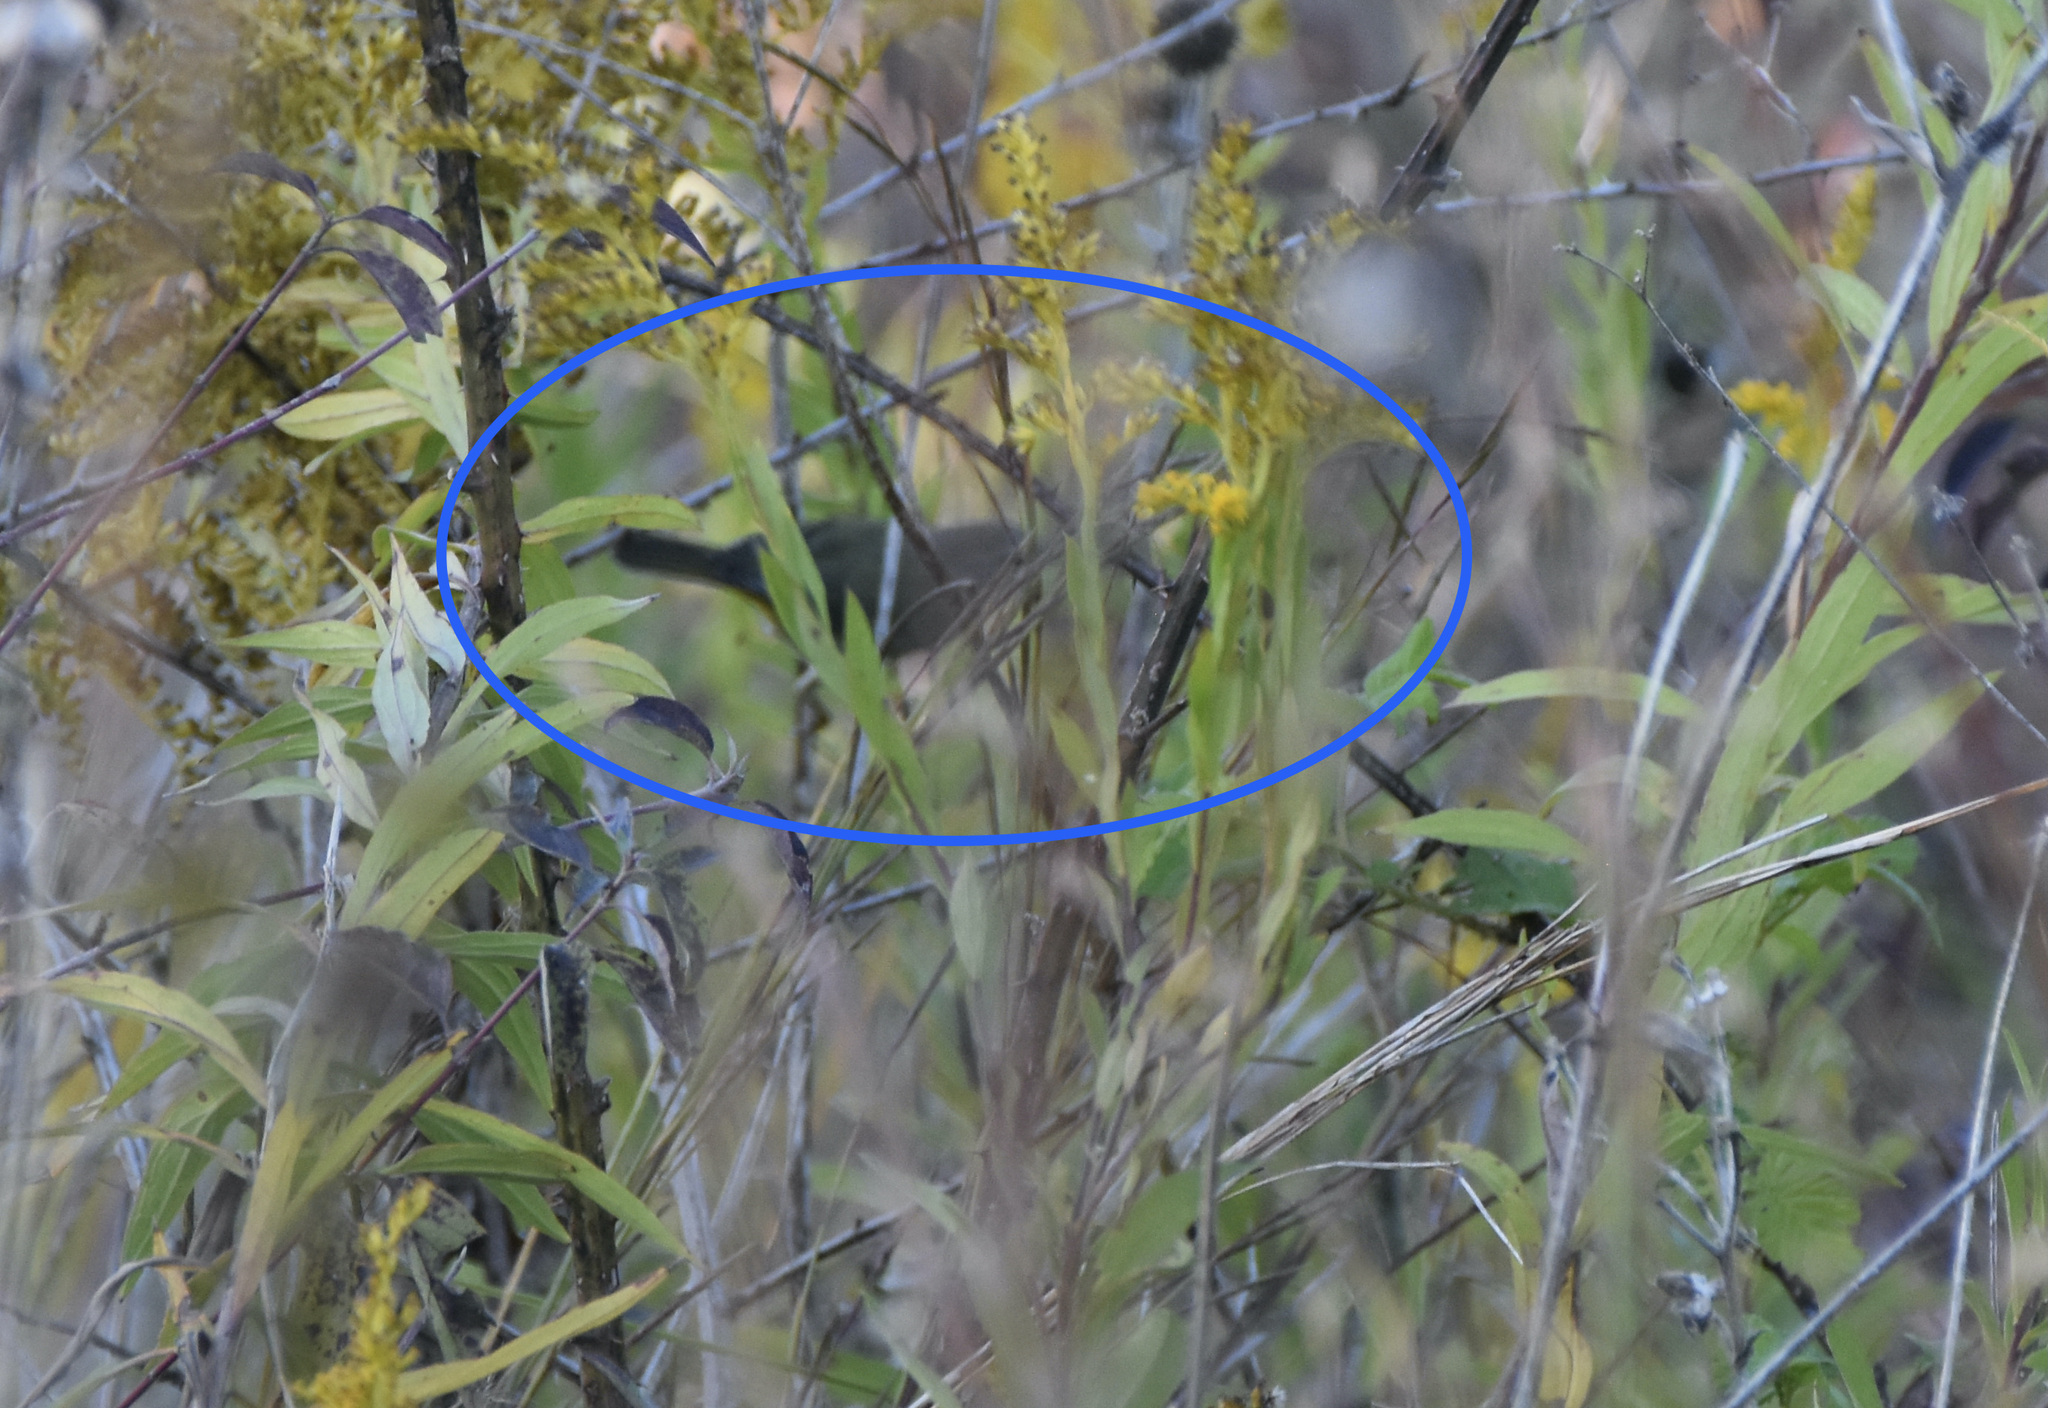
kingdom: Animalia
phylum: Chordata
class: Aves
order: Passeriformes
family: Parulidae
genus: Leiothlypis
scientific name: Leiothlypis celata
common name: Orange-crowned warbler
